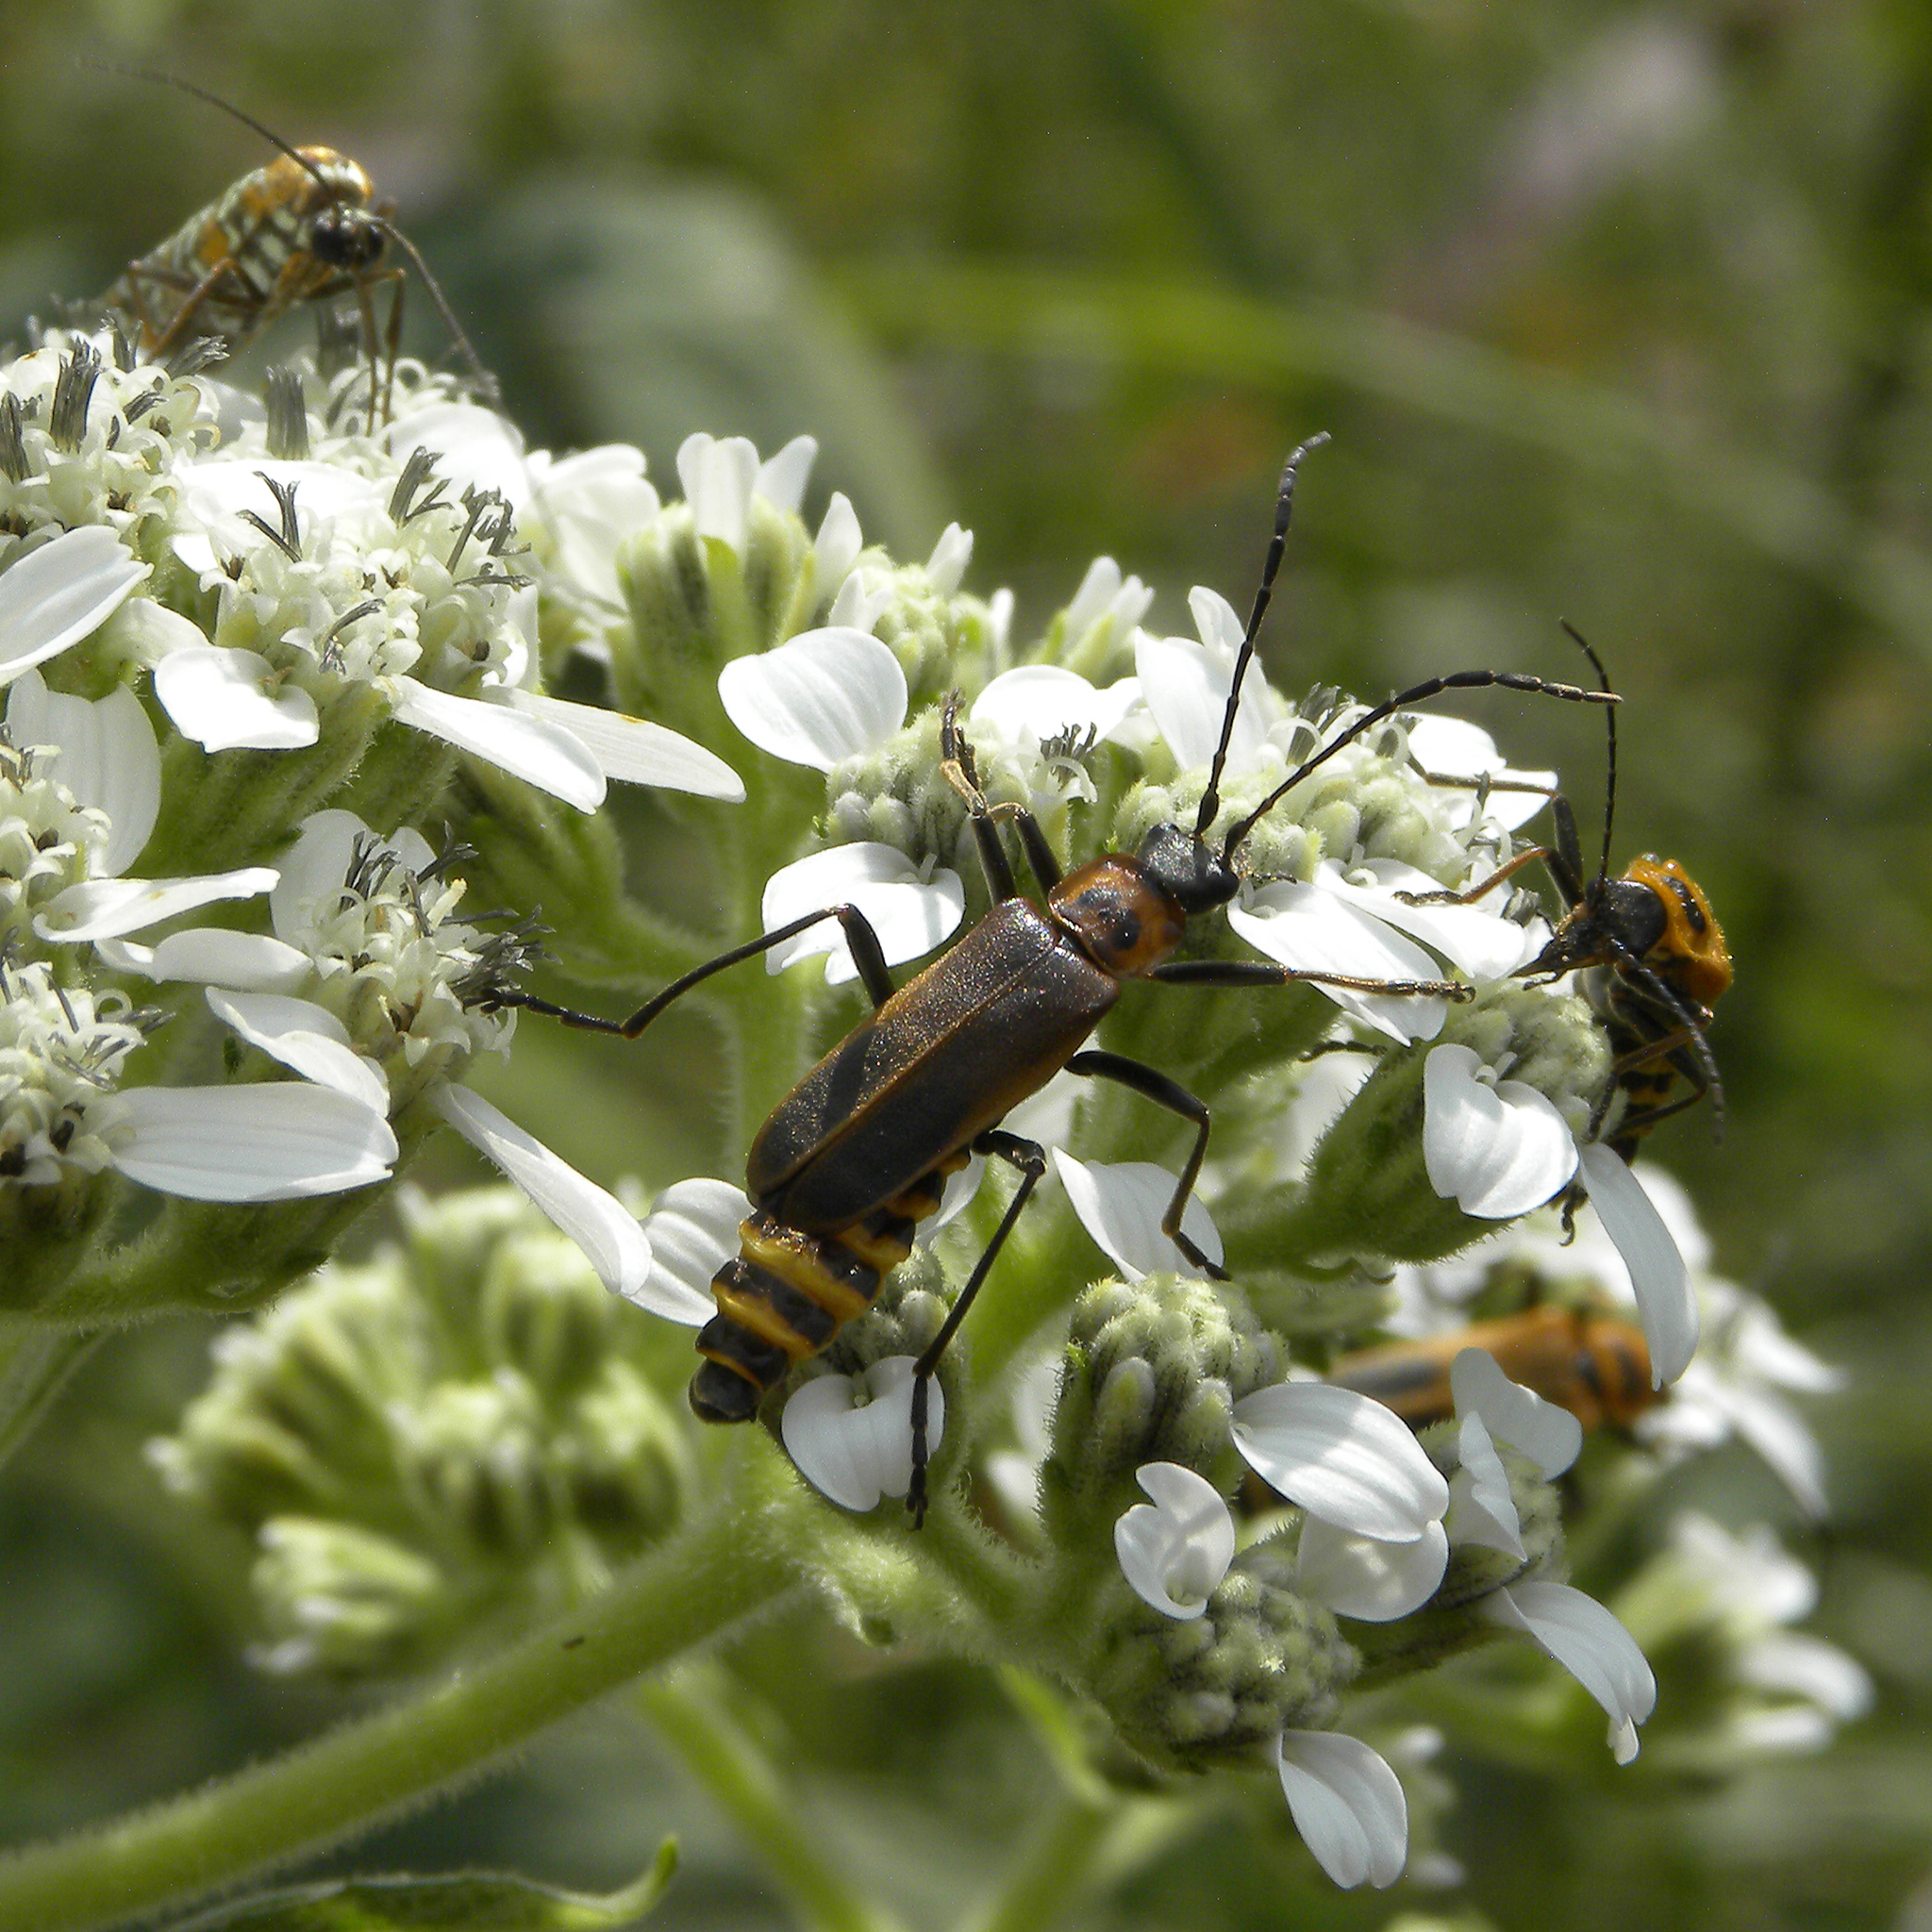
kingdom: Animalia
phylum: Arthropoda
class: Insecta
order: Coleoptera
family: Cantharidae
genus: Chauliognathus
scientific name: Chauliognathus pensylvanicus
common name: Goldenrod soldier beetle
